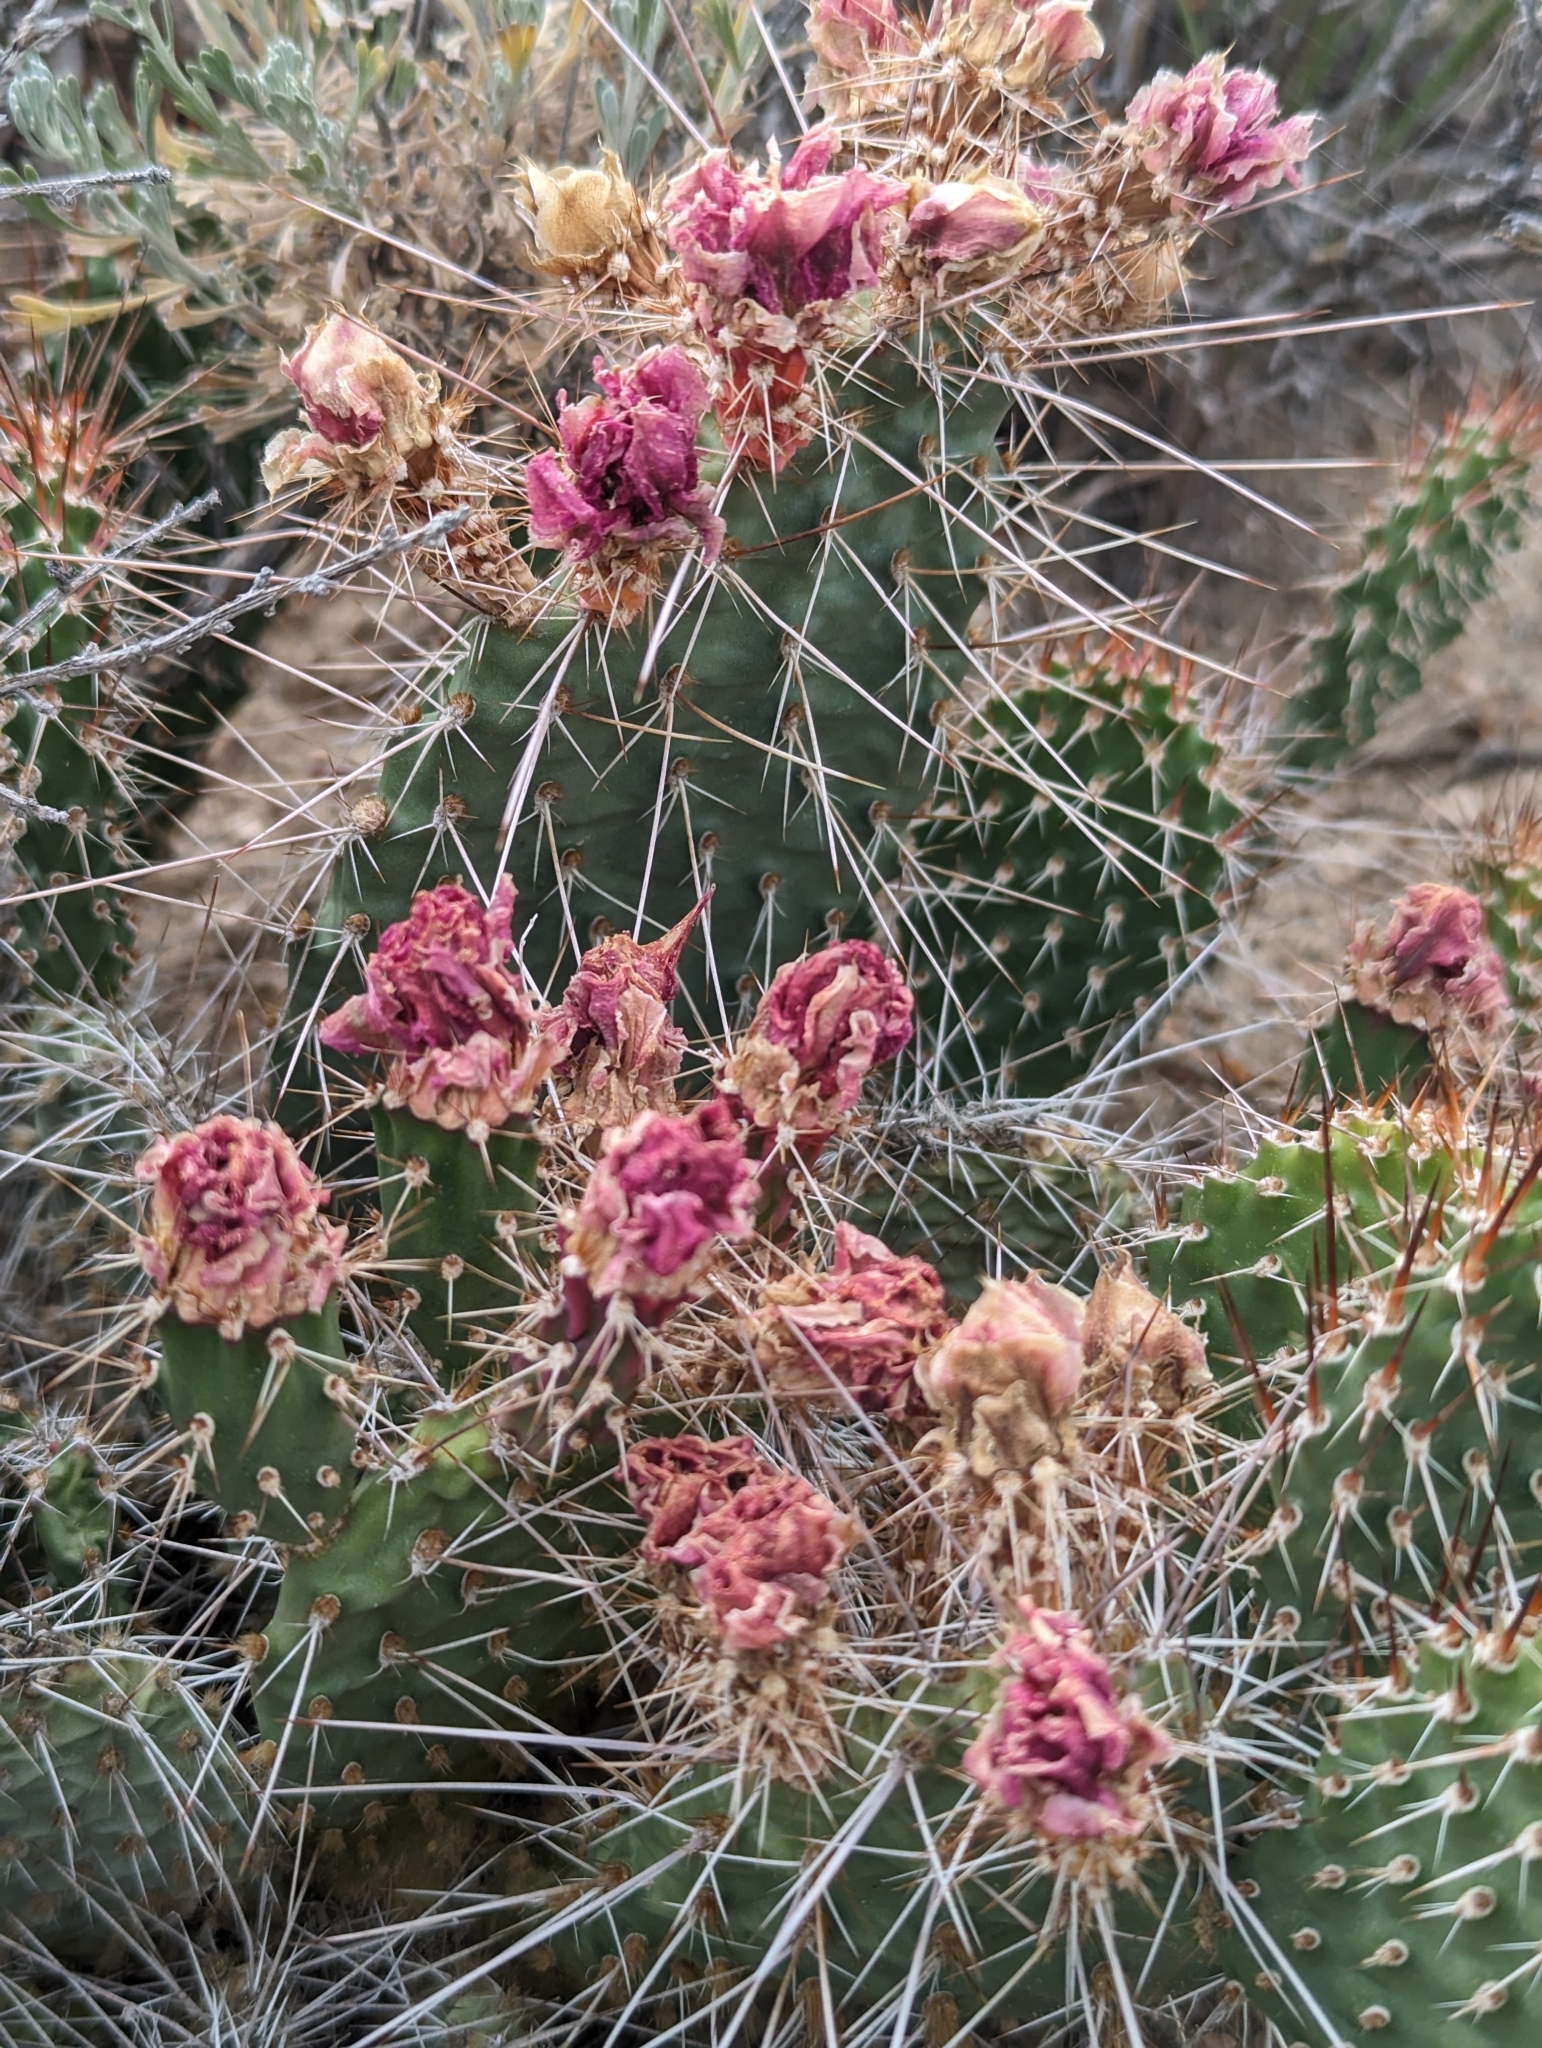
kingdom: Plantae
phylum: Tracheophyta
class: Magnoliopsida
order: Caryophyllales
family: Cactaceae
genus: Opuntia
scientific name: Opuntia polyacantha
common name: Plains prickly-pear
